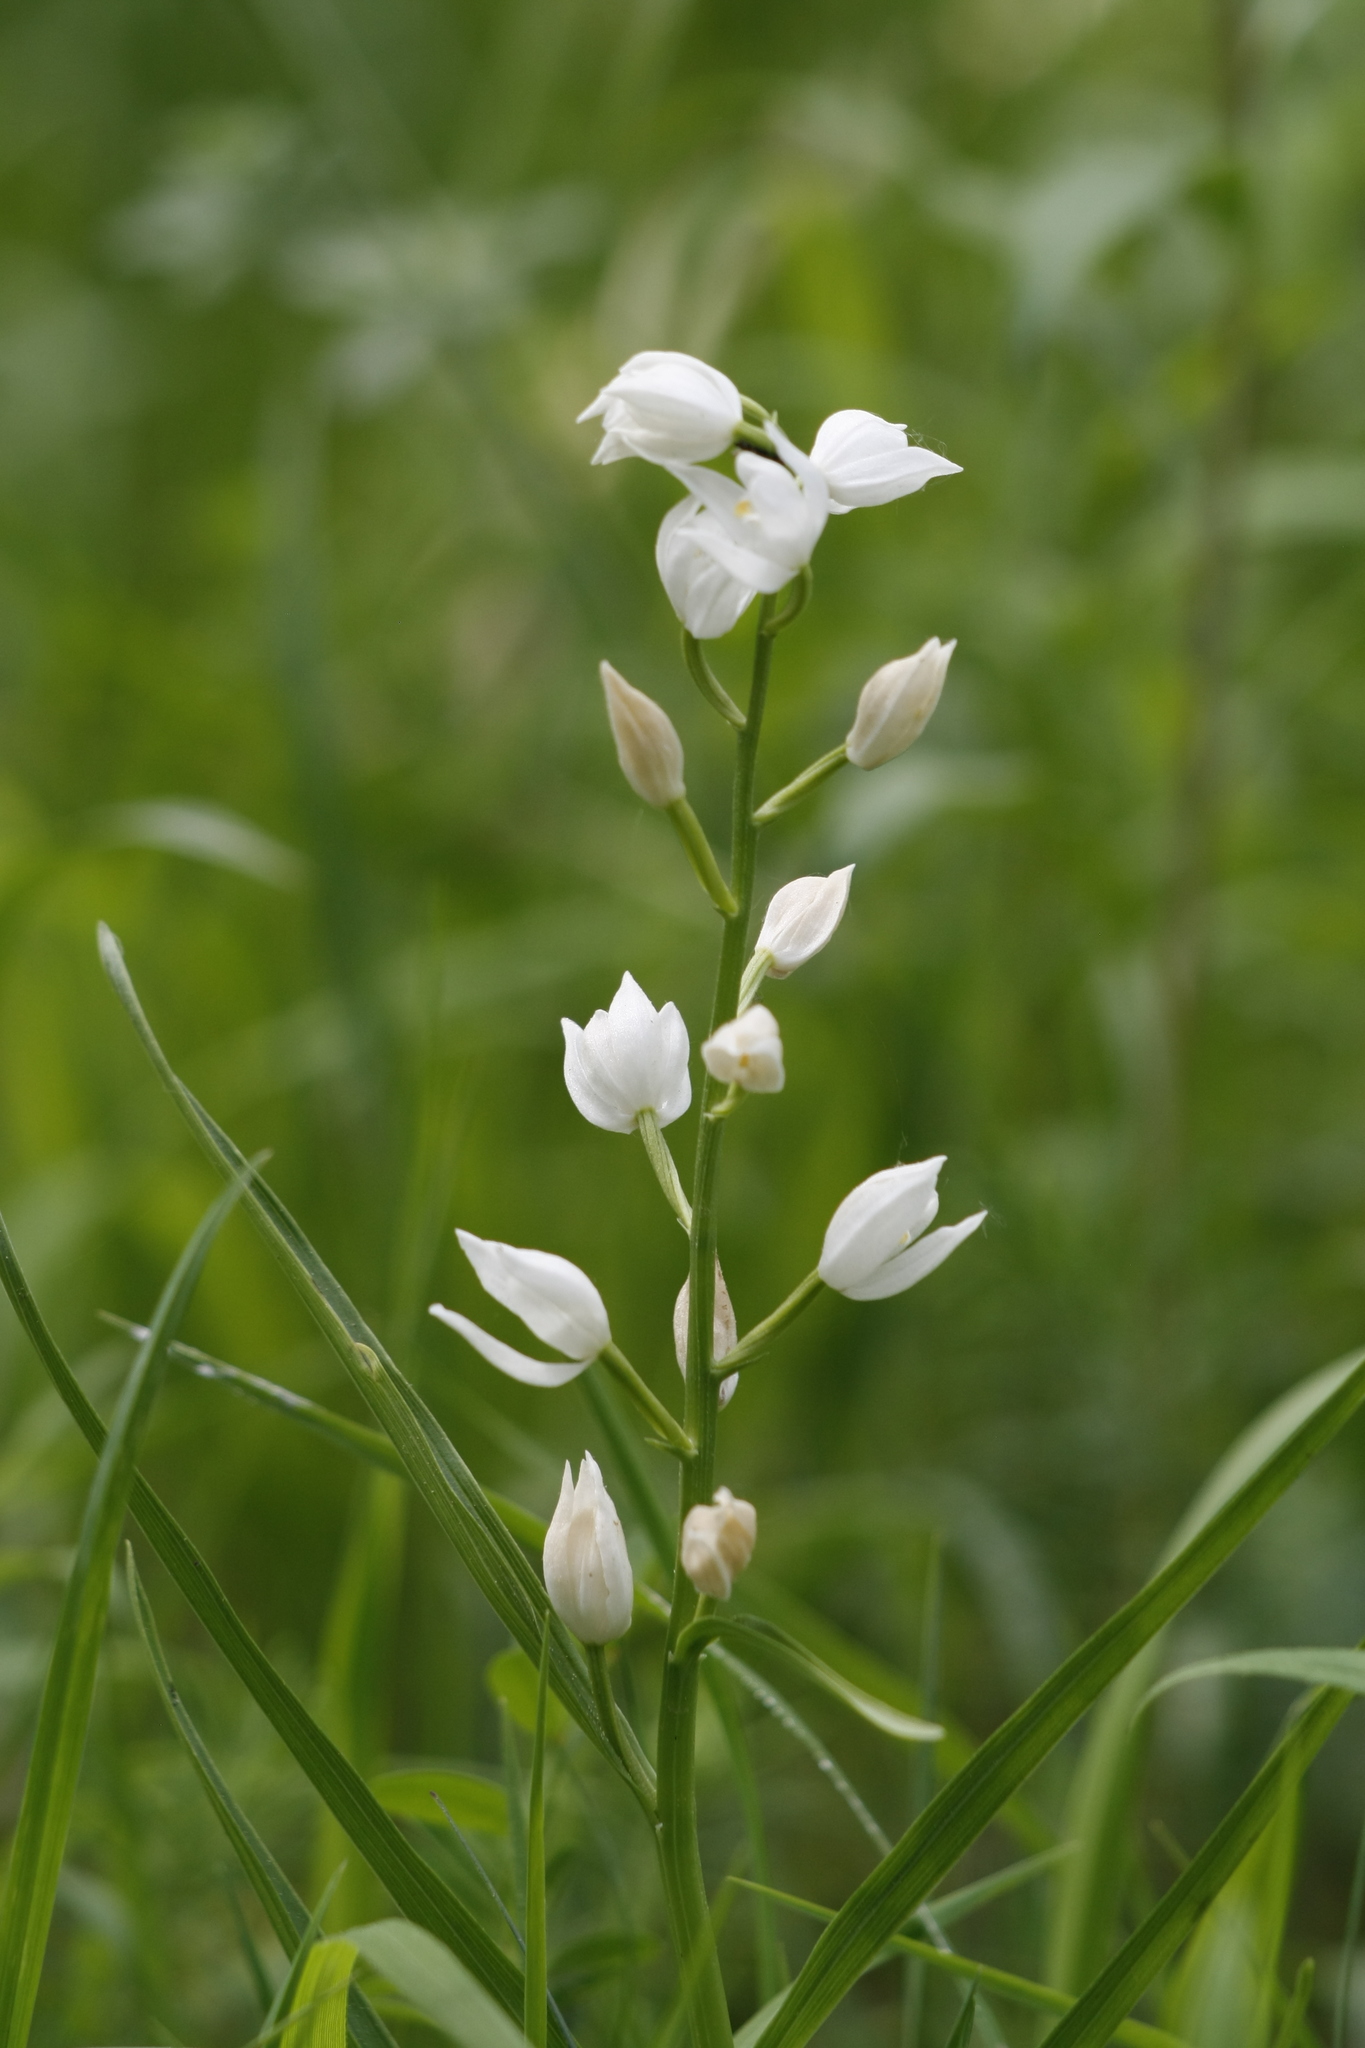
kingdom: Plantae
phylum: Tracheophyta
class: Liliopsida
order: Asparagales
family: Orchidaceae
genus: Cephalanthera
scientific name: Cephalanthera longifolia
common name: Narrow-leaved helleborine
